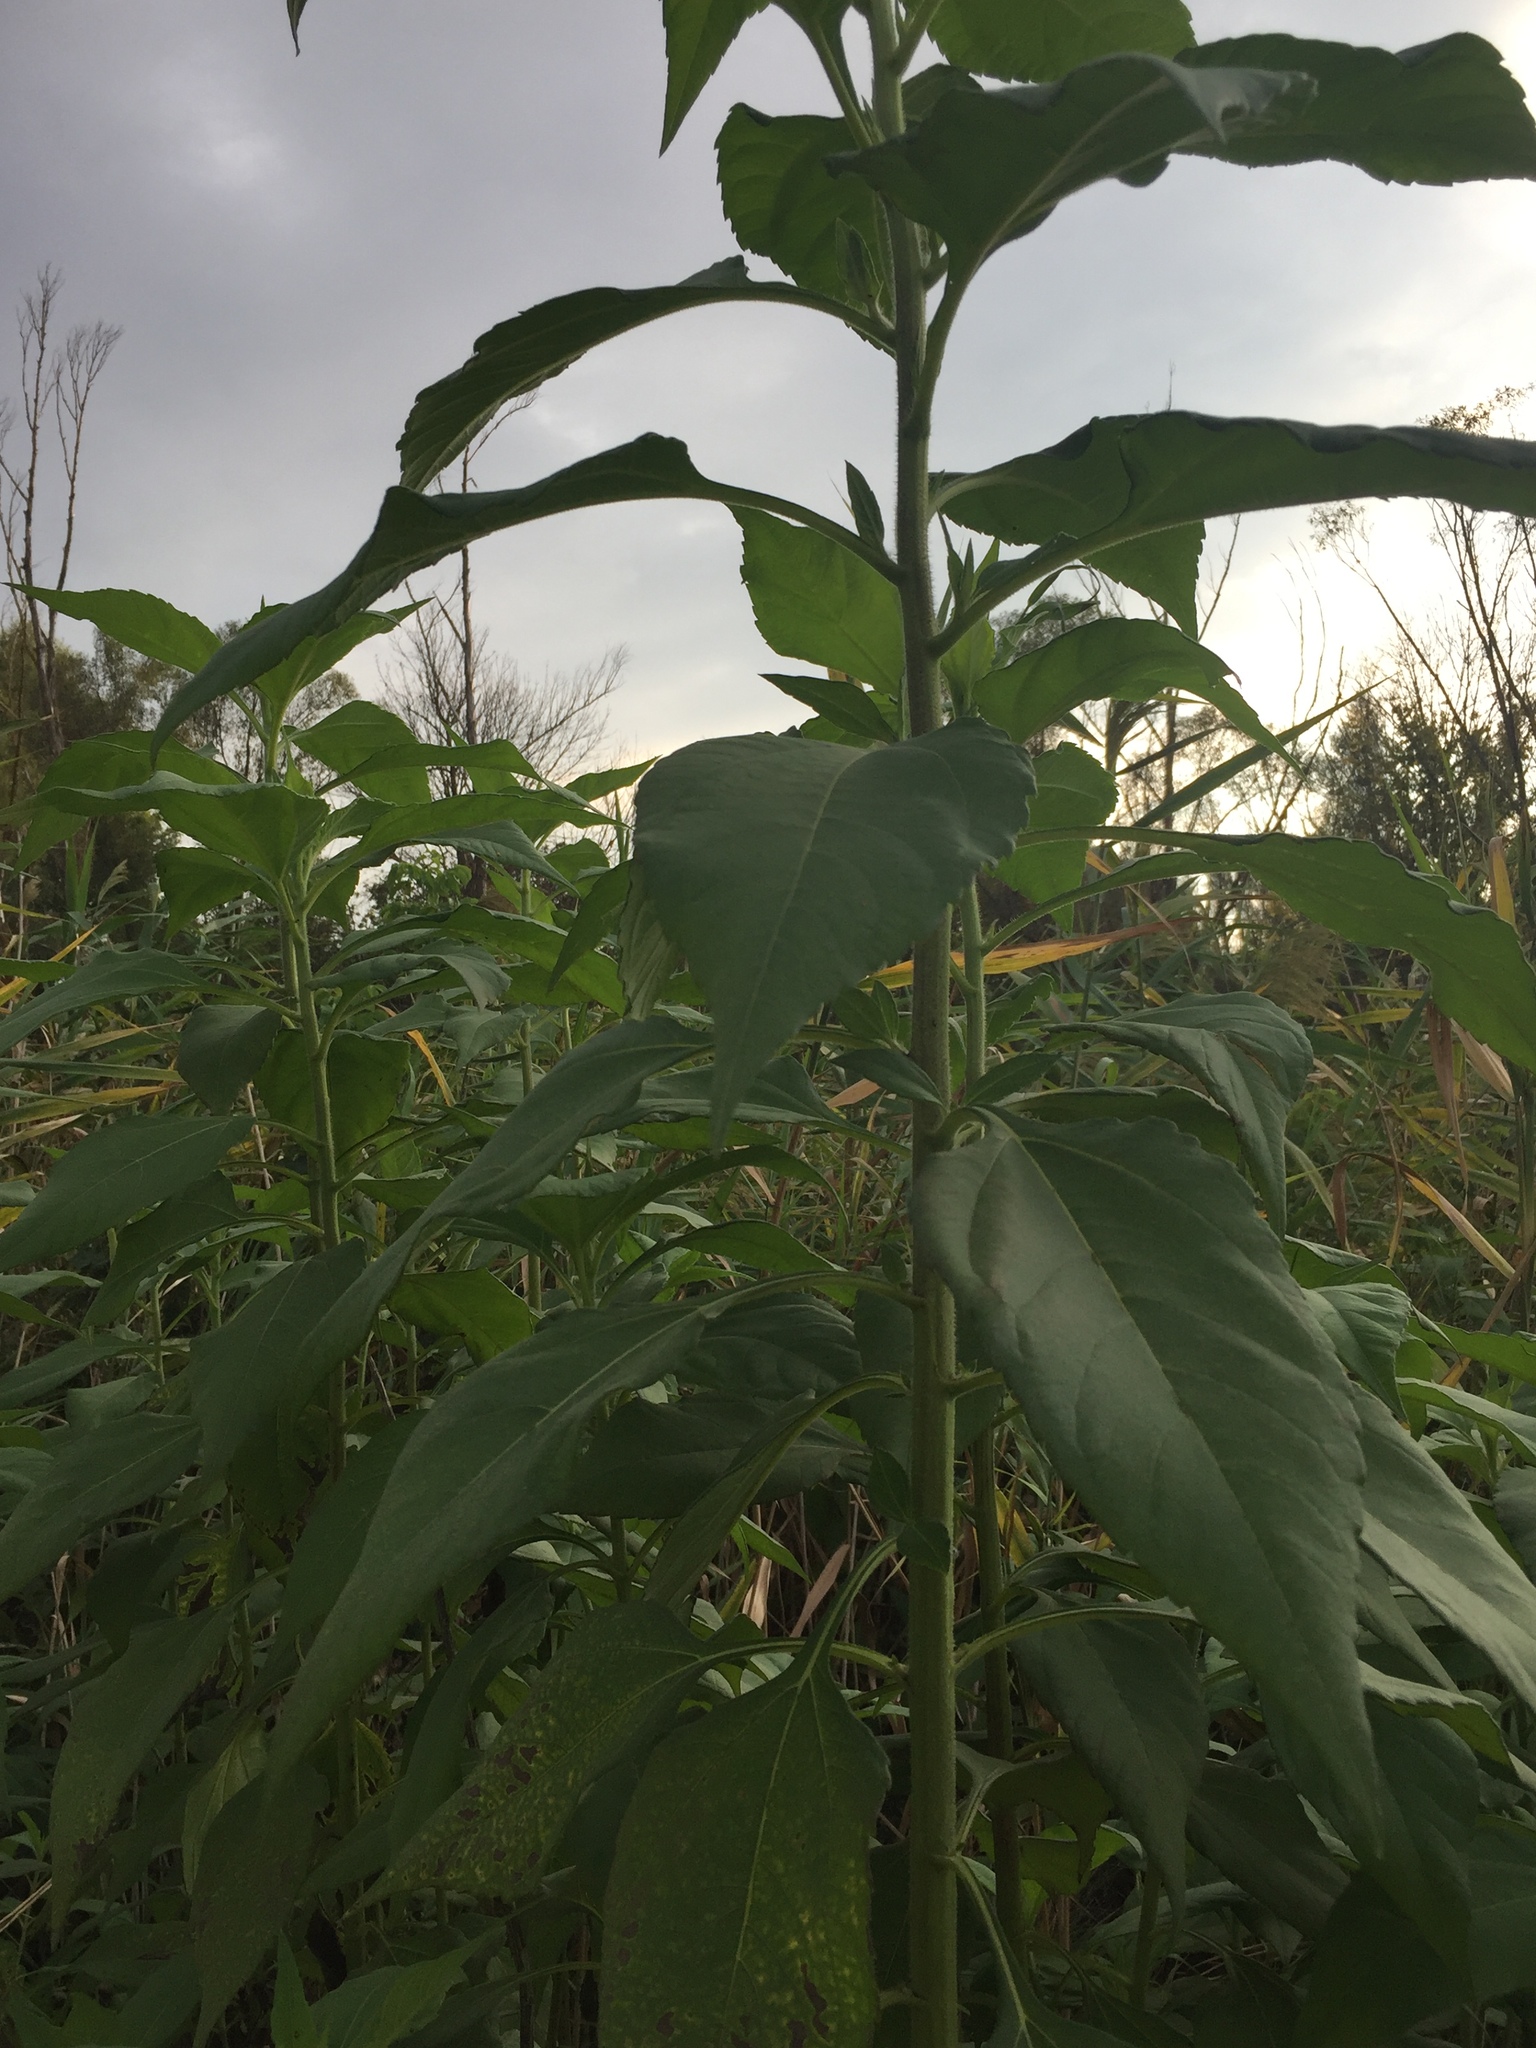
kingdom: Plantae
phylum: Tracheophyta
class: Magnoliopsida
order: Asterales
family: Asteraceae
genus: Helianthus
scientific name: Helianthus tuberosus
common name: Jerusalem artichoke
